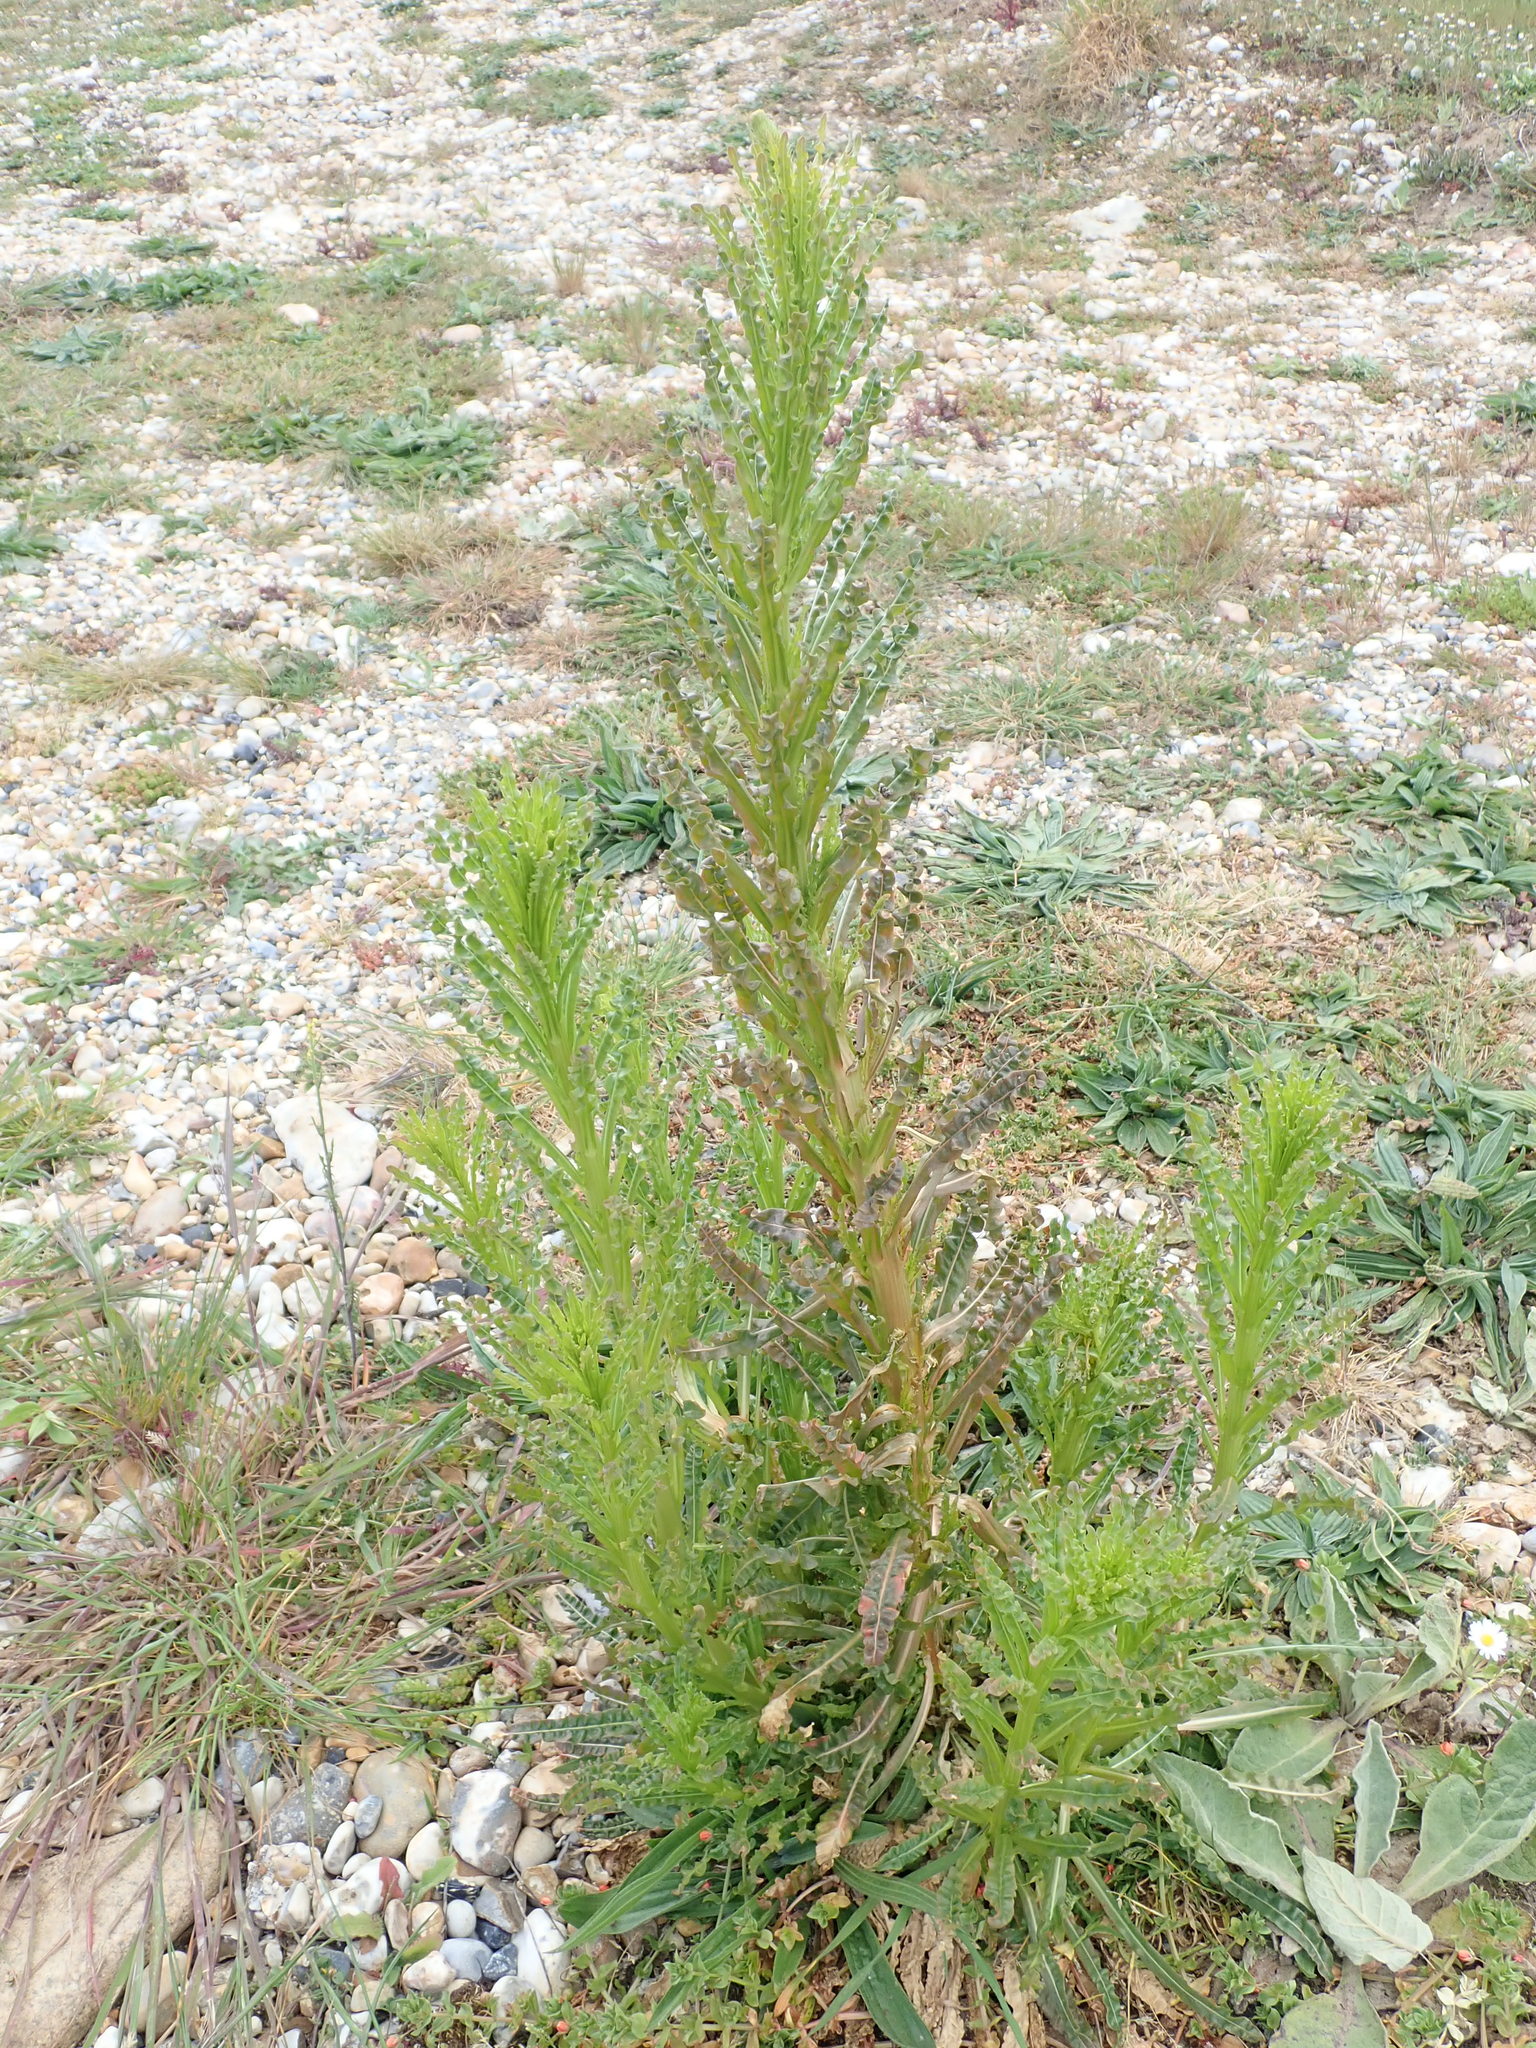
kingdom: Plantae
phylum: Tracheophyta
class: Magnoliopsida
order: Brassicales
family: Resedaceae
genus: Reseda
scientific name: Reseda luteola
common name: Weld
